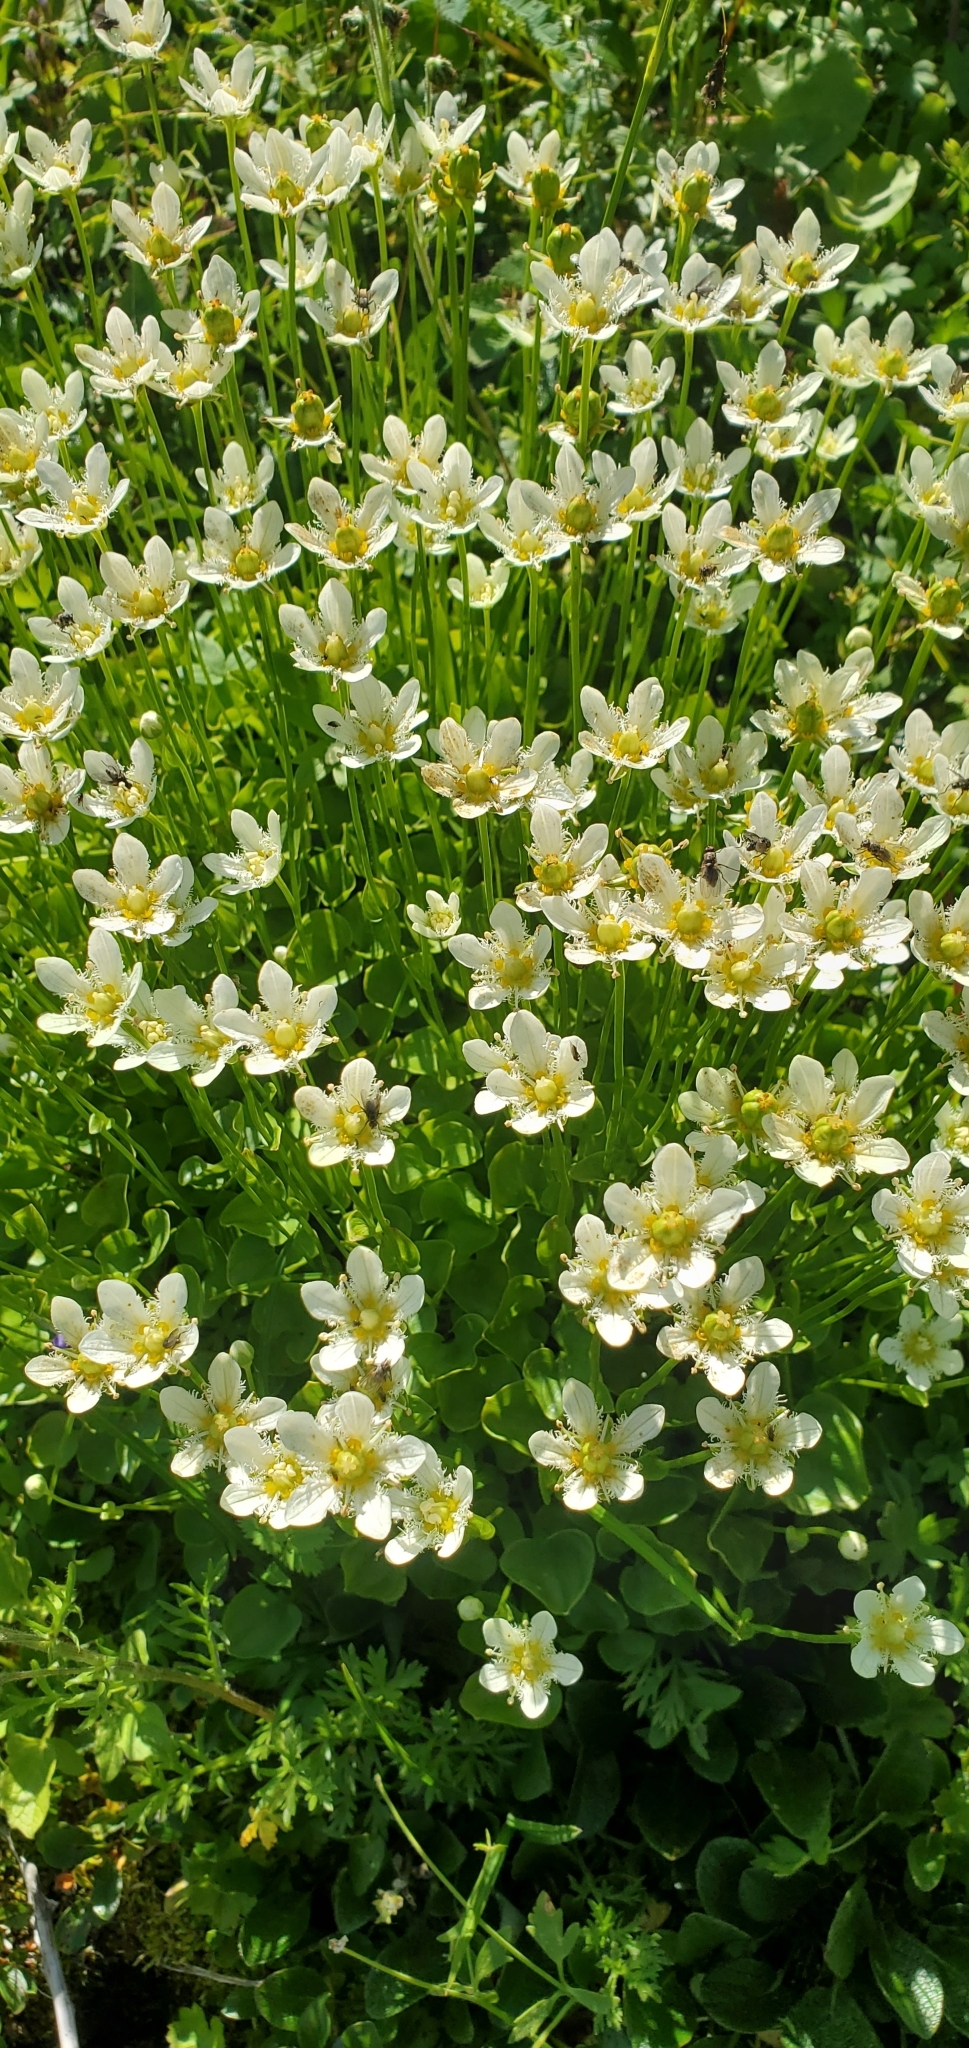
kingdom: Plantae
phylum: Tracheophyta
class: Magnoliopsida
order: Celastrales
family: Parnassiaceae
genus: Parnassia
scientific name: Parnassia fimbriata
